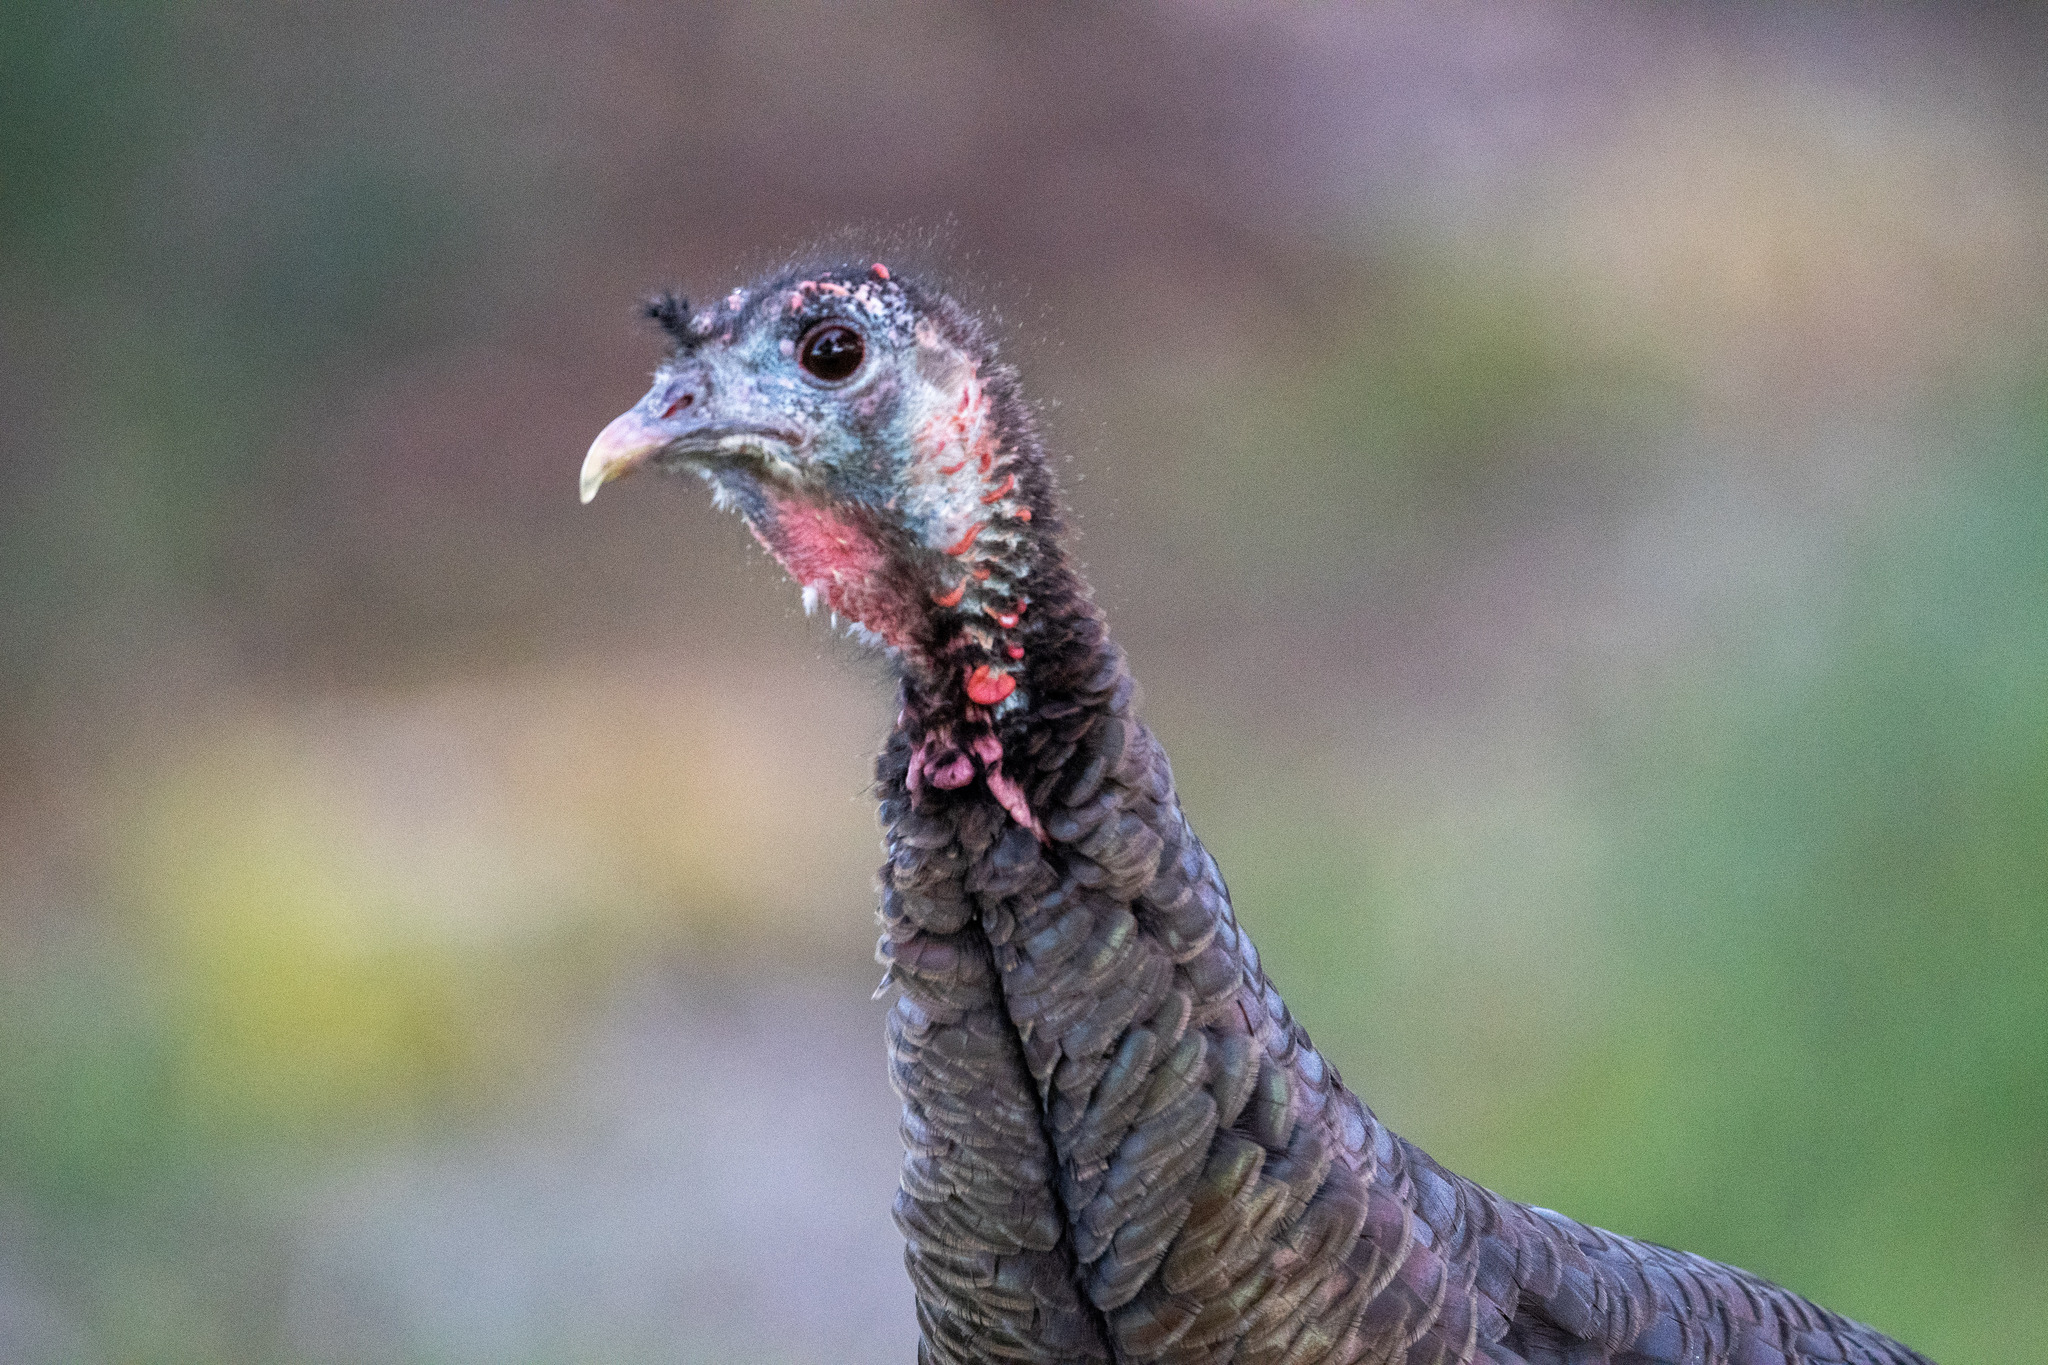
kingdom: Animalia
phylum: Chordata
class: Aves
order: Galliformes
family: Phasianidae
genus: Meleagris
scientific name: Meleagris gallopavo
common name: Wild turkey
